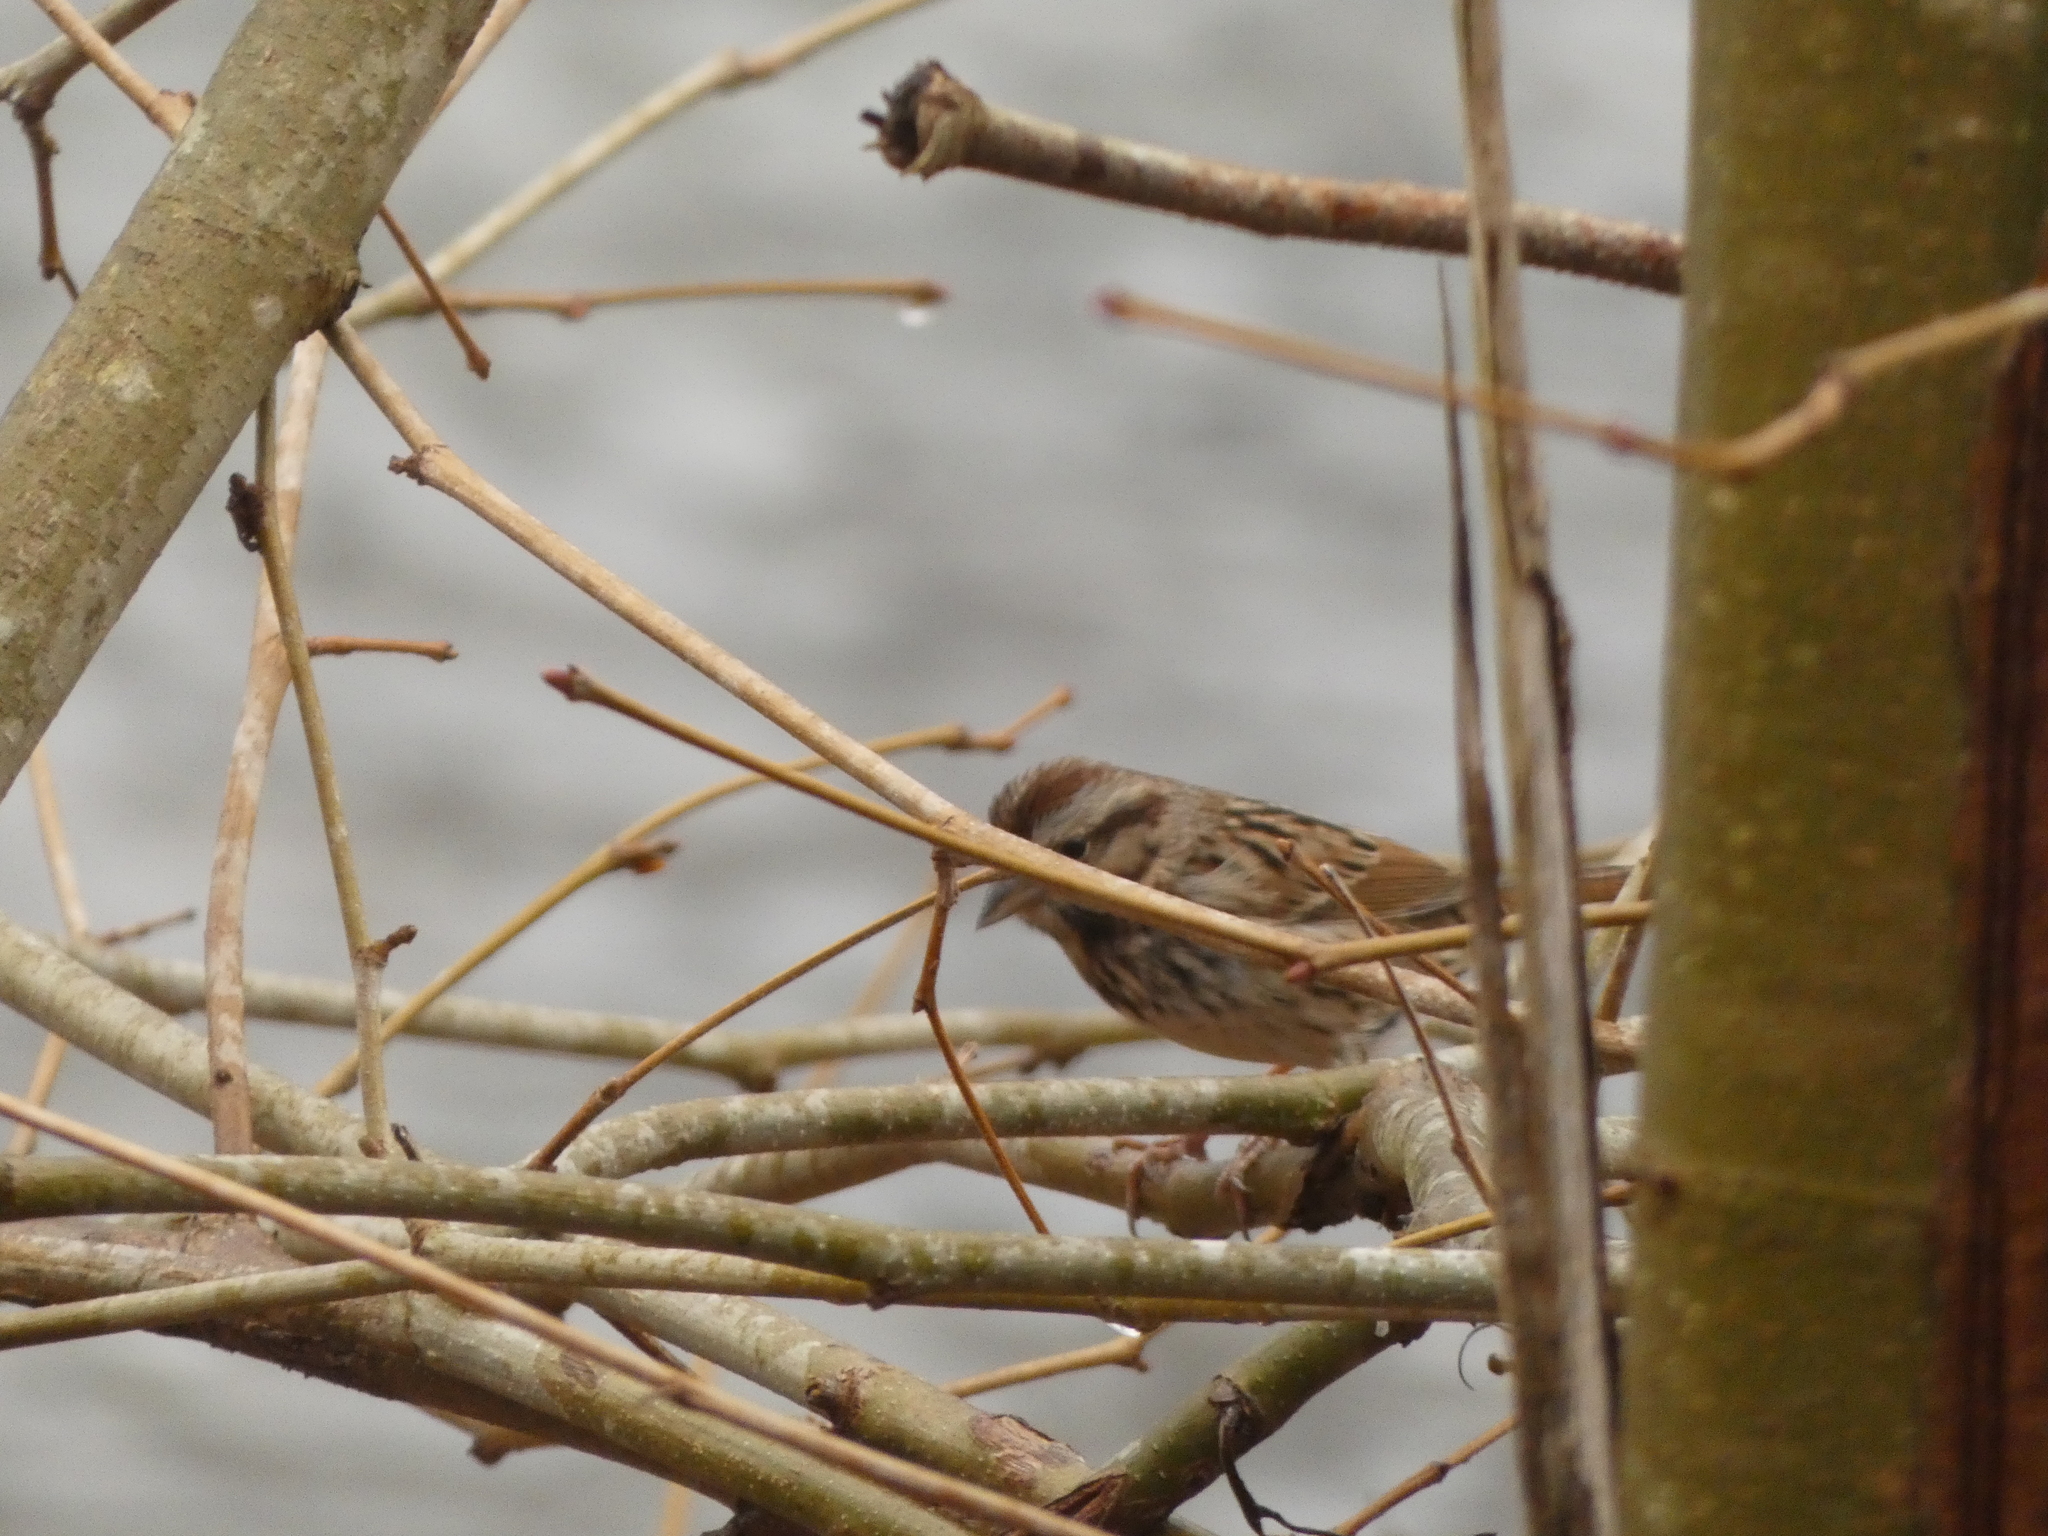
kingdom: Animalia
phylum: Chordata
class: Aves
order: Passeriformes
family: Passerellidae
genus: Melospiza
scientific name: Melospiza melodia
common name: Song sparrow
